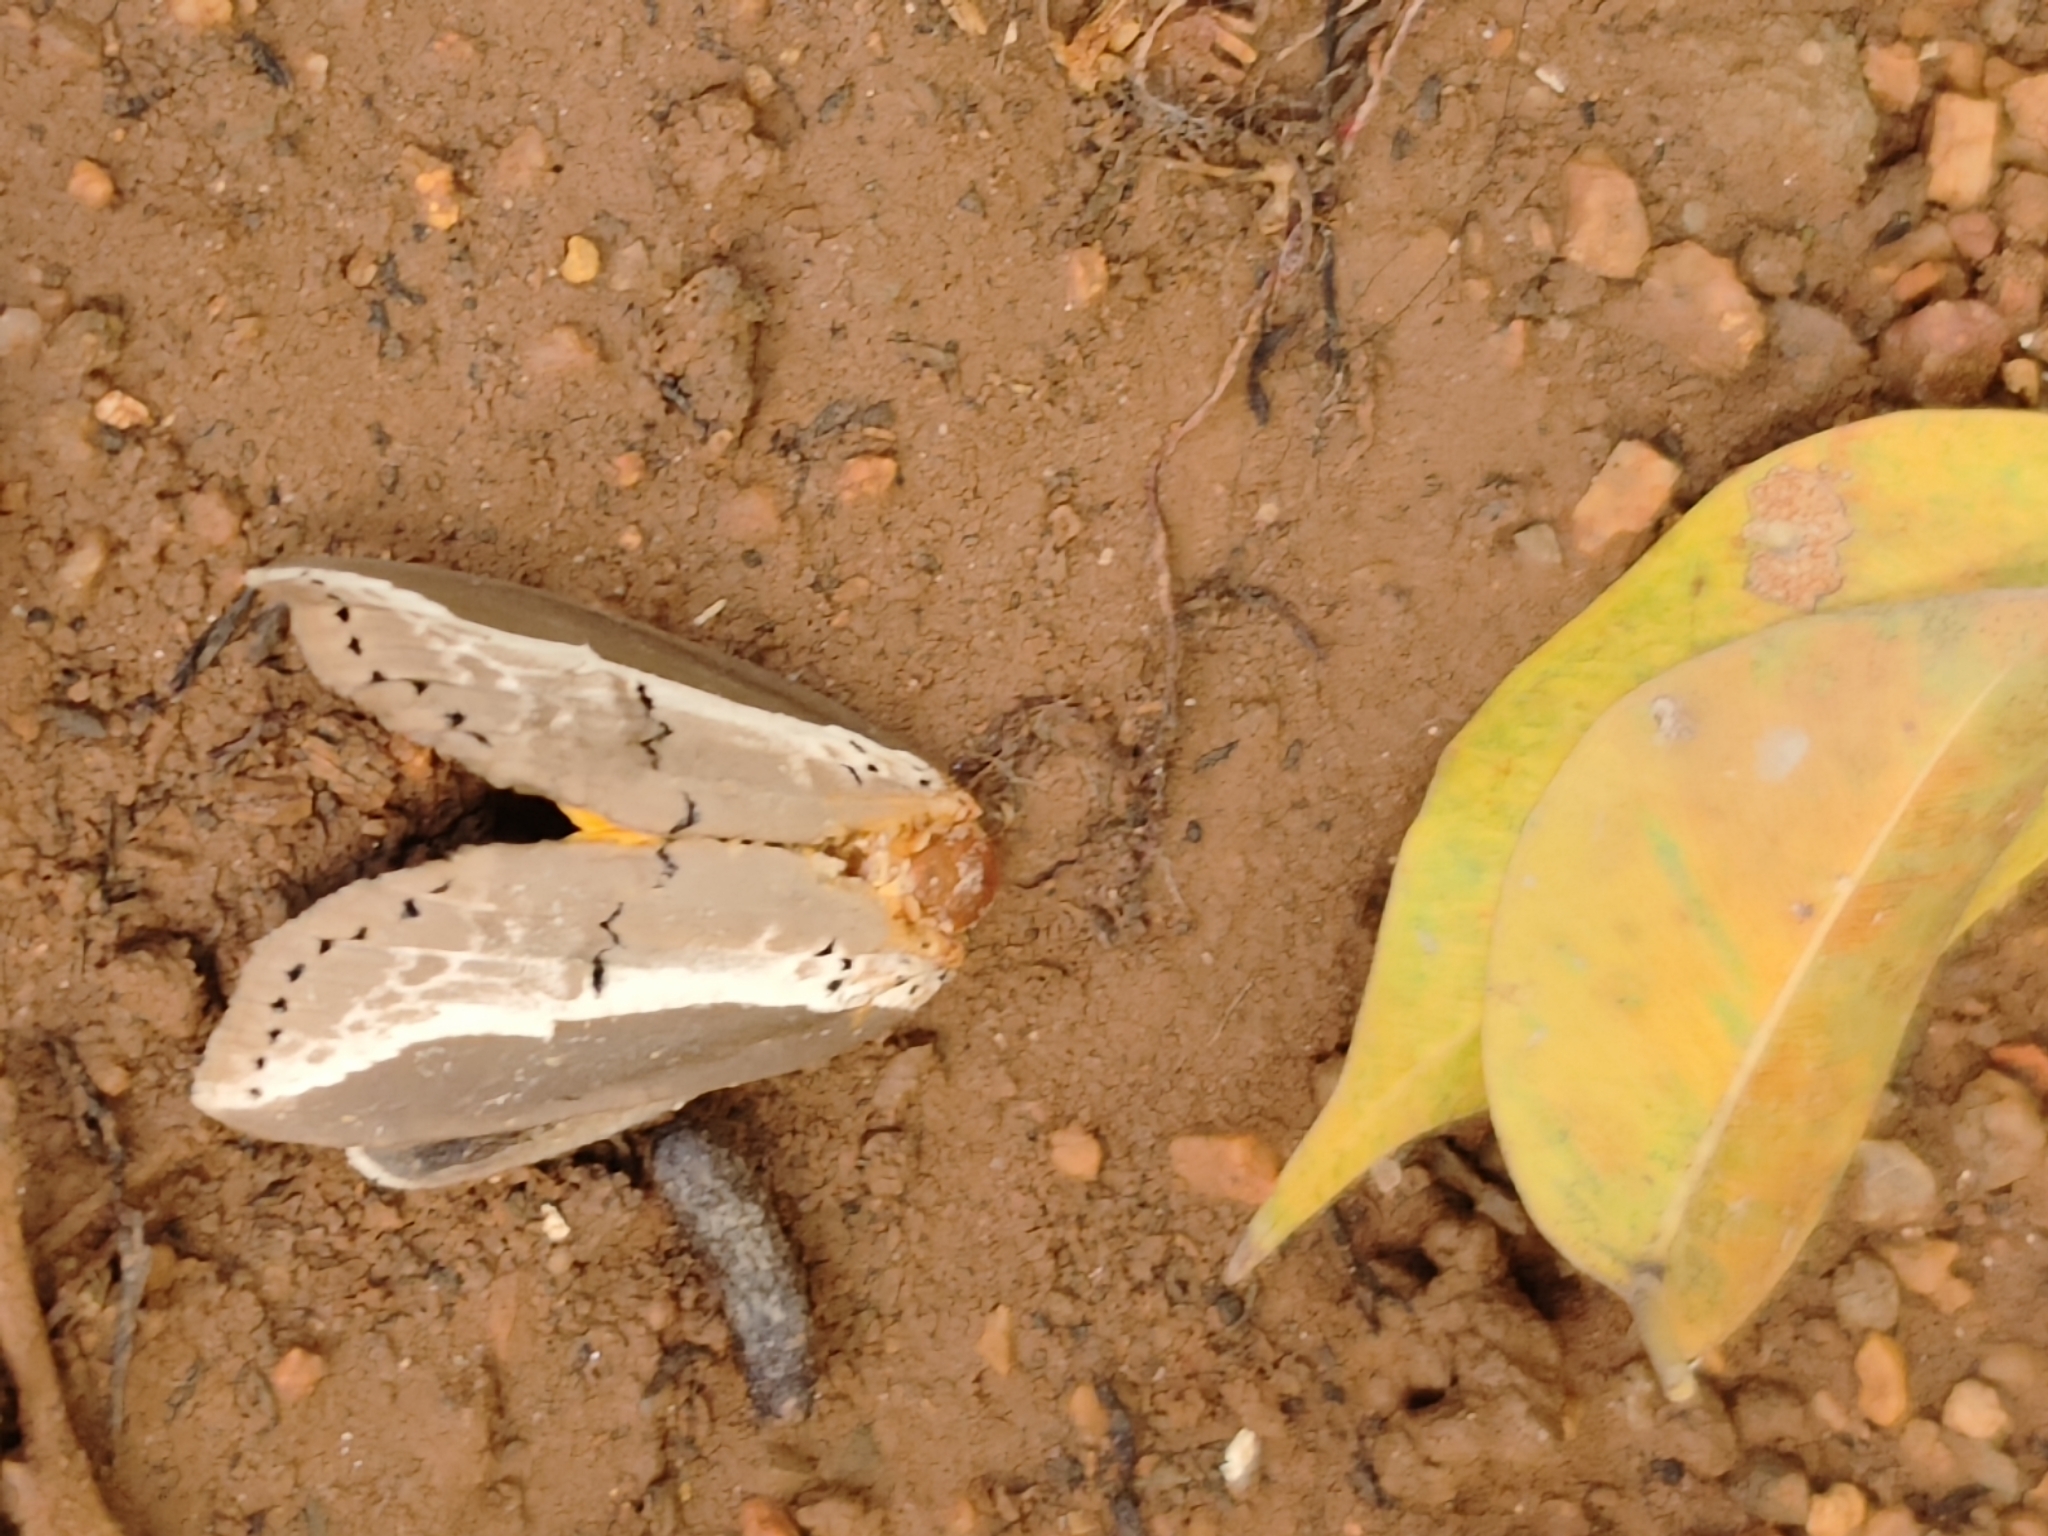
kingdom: Animalia
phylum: Arthropoda
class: Insecta
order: Lepidoptera
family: Nolidae
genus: Eligma
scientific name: Eligma narcissus
